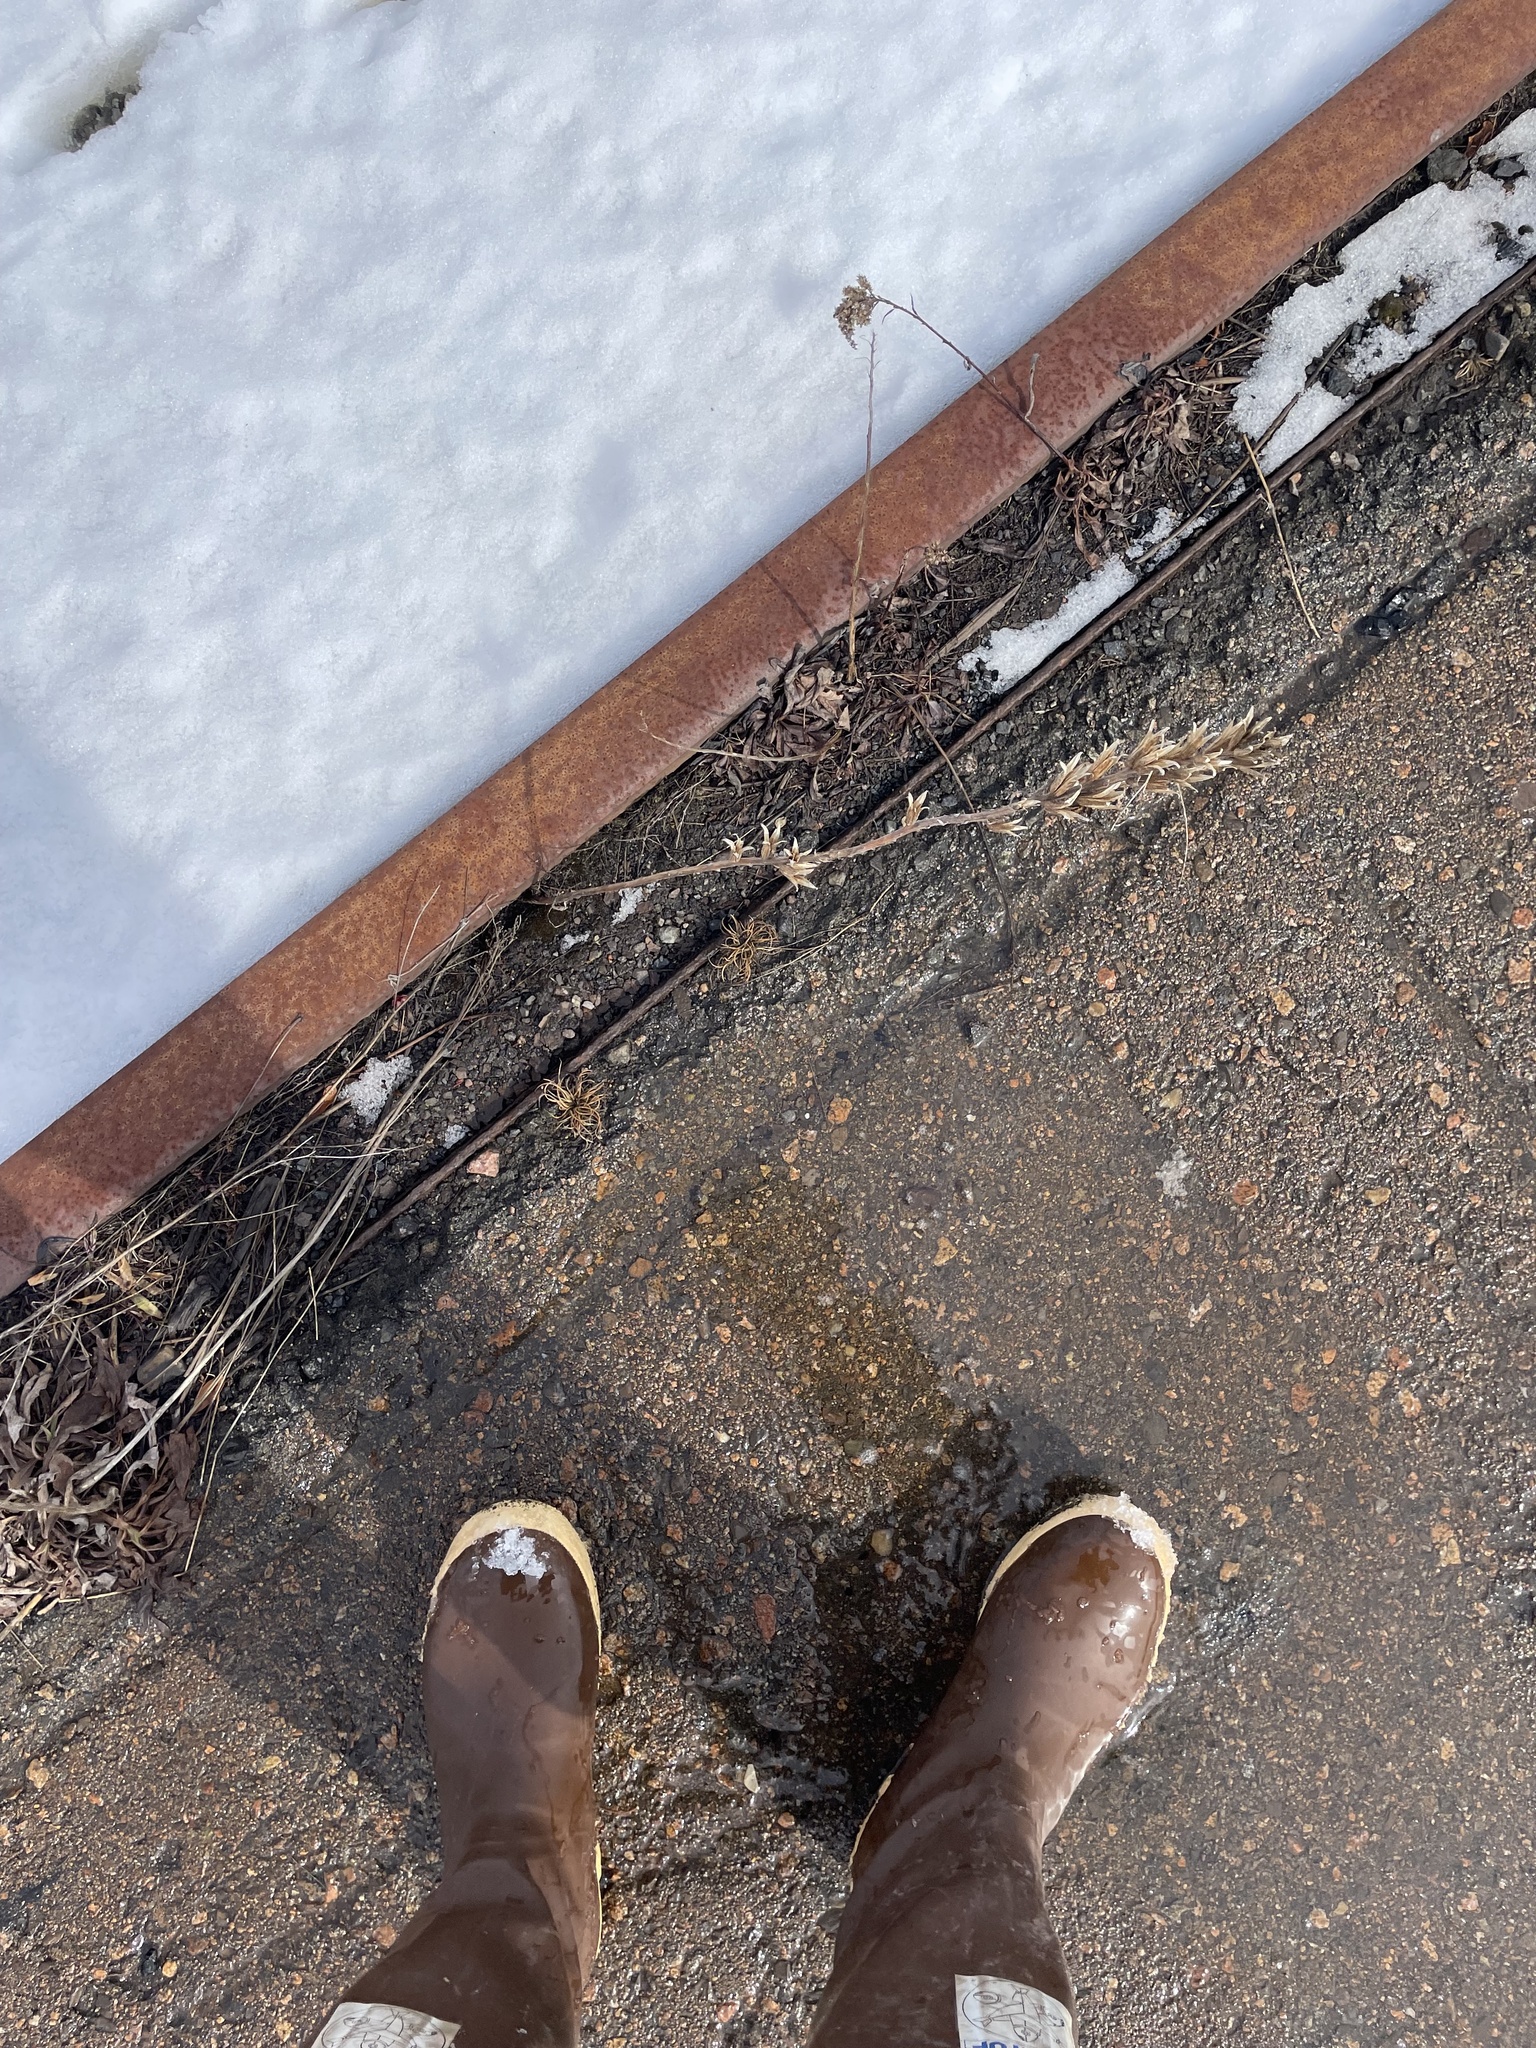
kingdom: Plantae
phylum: Tracheophyta
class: Magnoliopsida
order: Myrtales
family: Onagraceae
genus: Oenothera
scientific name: Oenothera biennis
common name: Common evening-primrose
